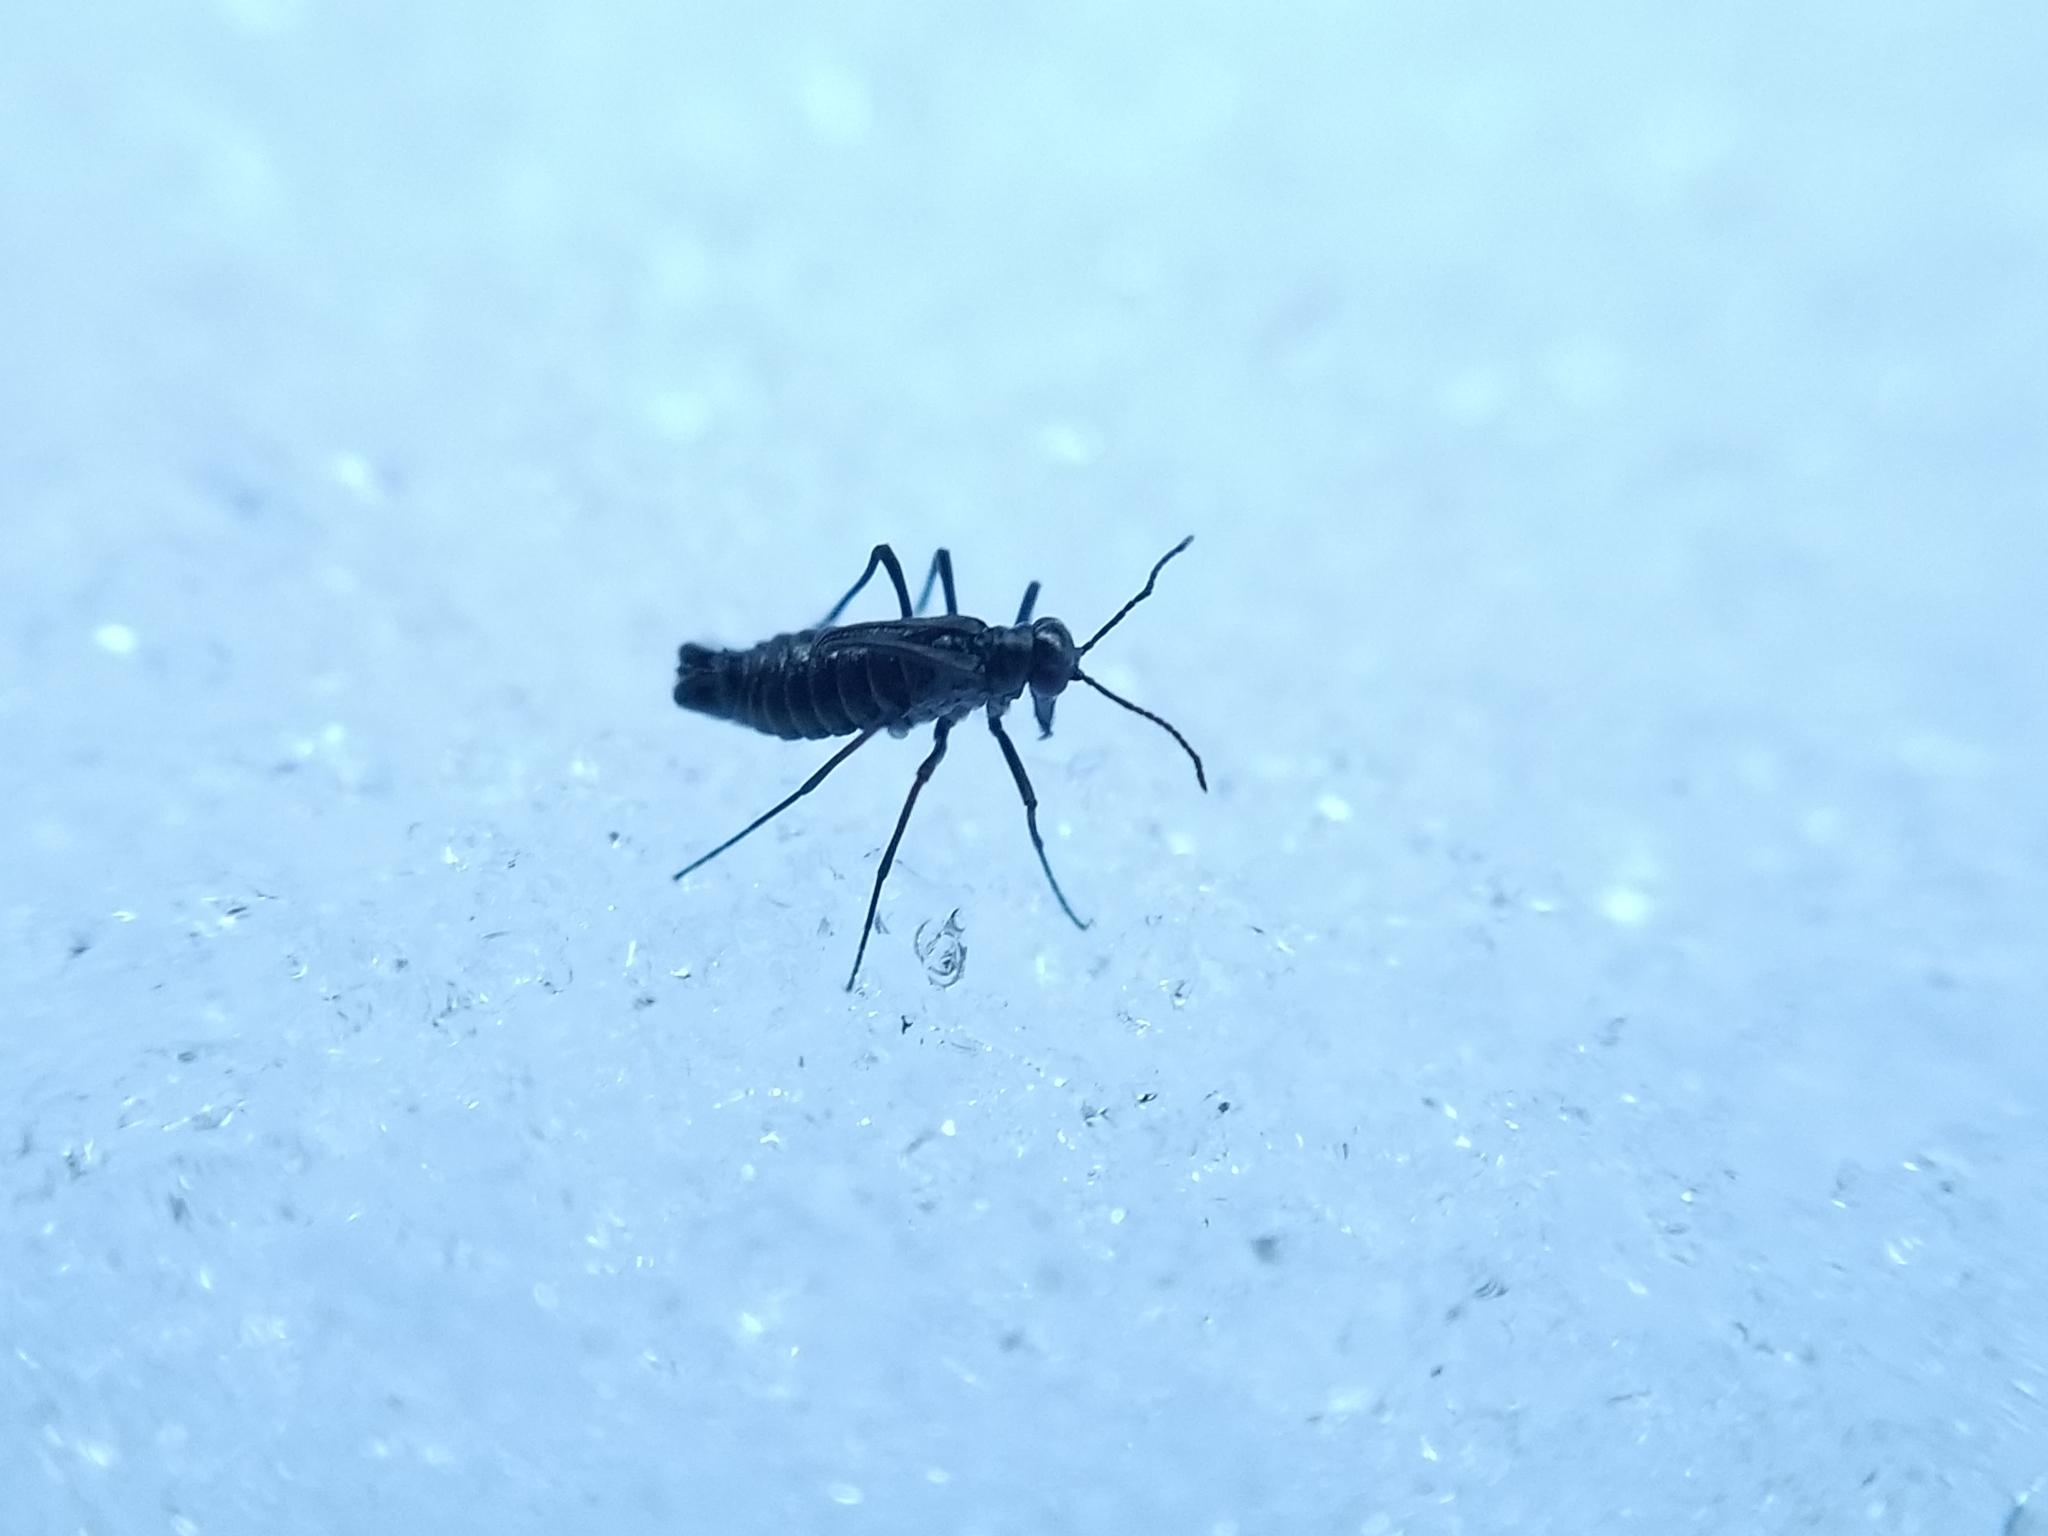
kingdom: Animalia
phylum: Arthropoda
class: Insecta
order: Mecoptera
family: Boreidae
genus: Boreus
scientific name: Boreus coloradensis
